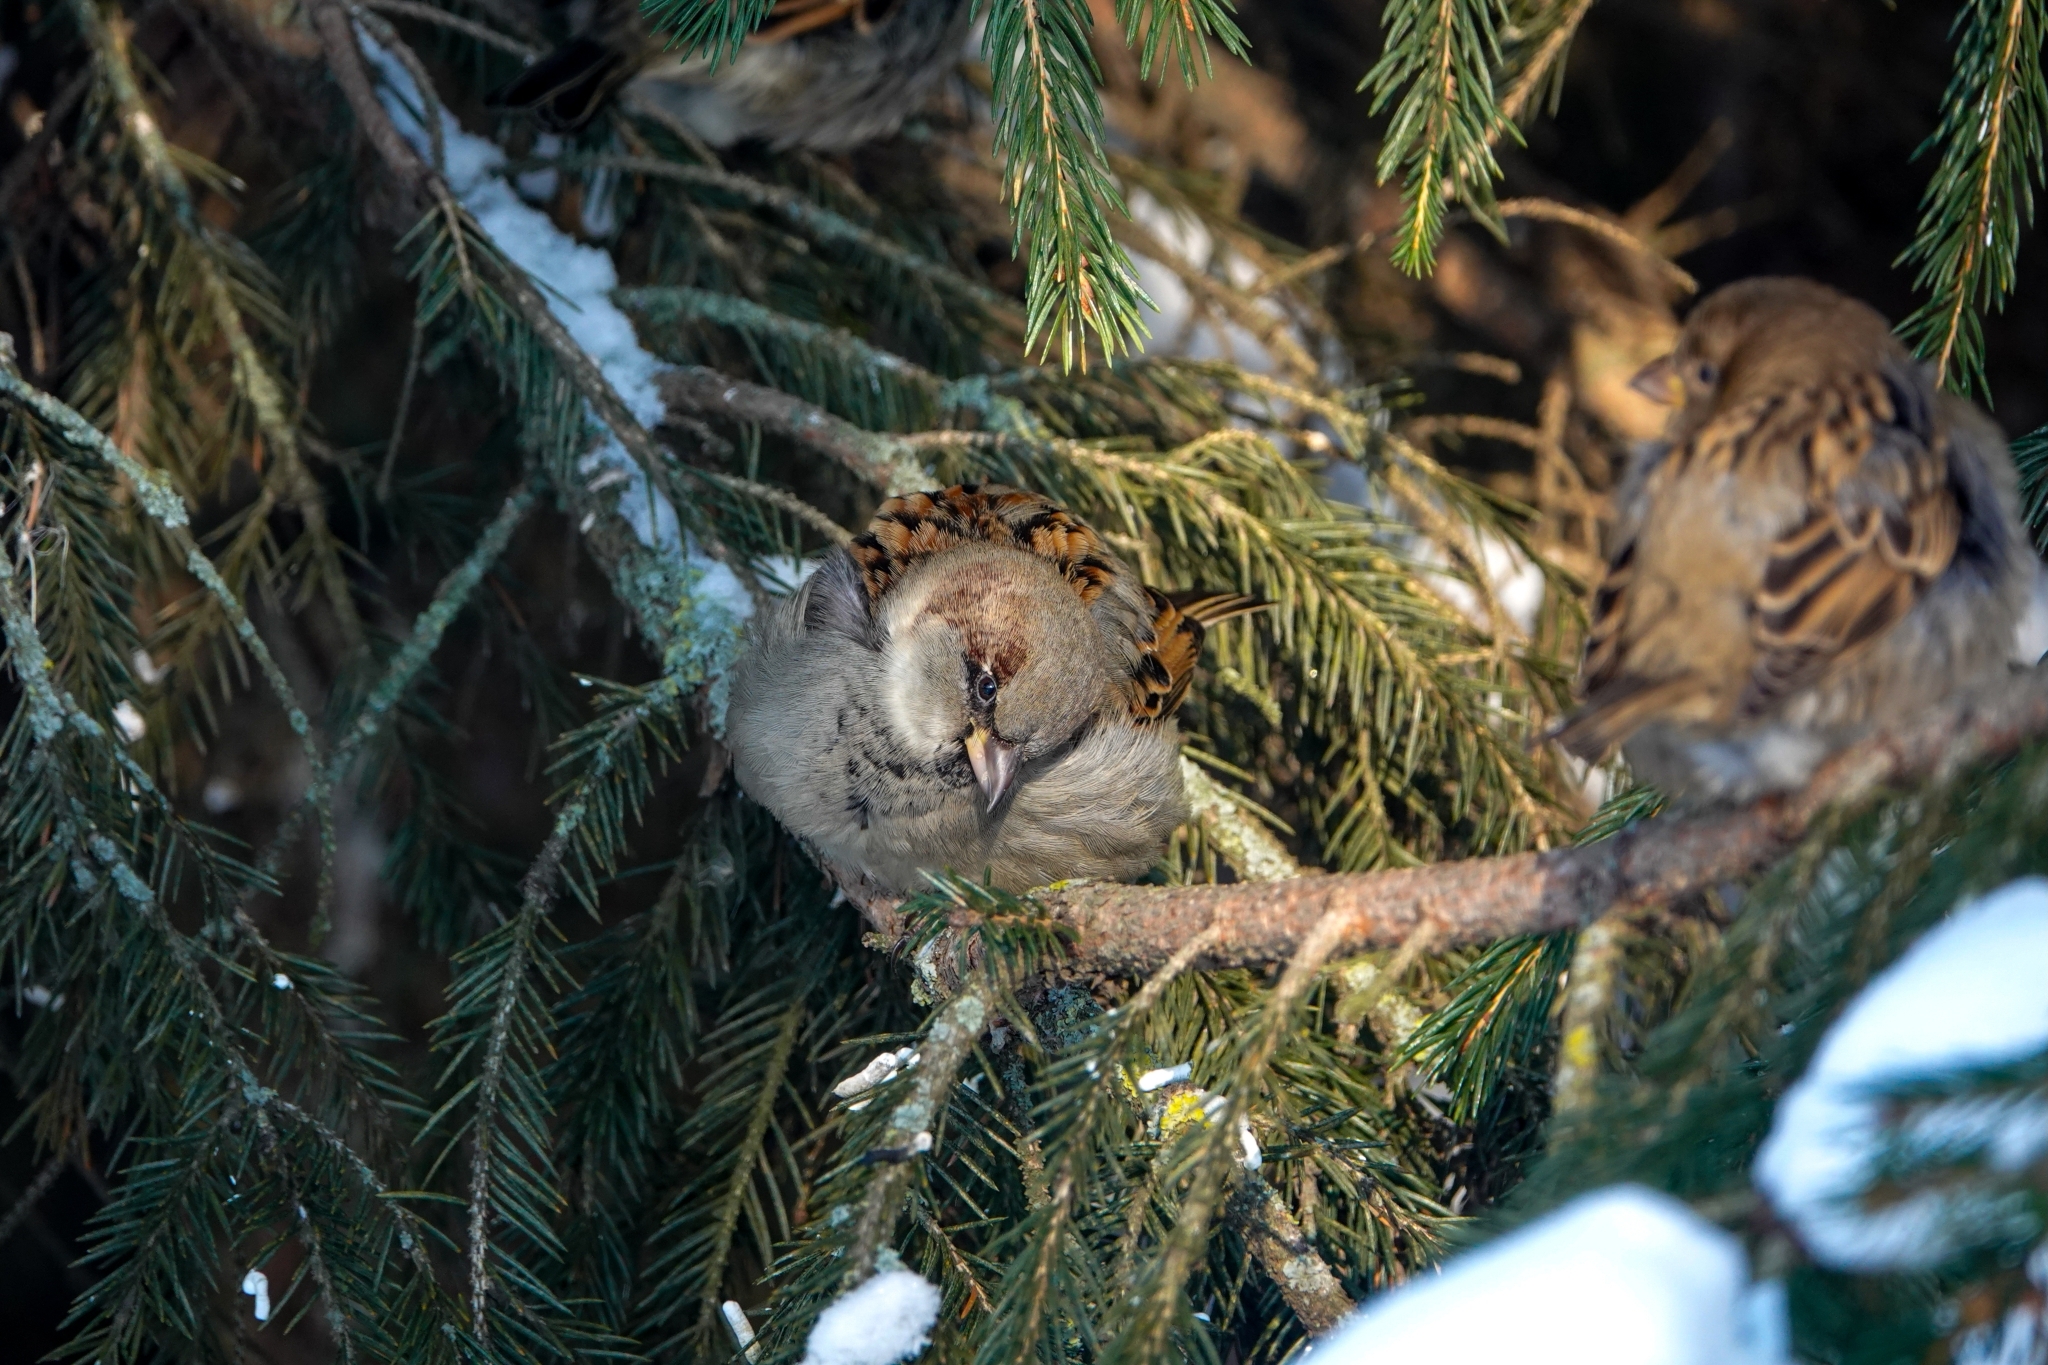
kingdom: Animalia
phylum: Chordata
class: Aves
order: Passeriformes
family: Passeridae
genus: Passer
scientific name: Passer domesticus
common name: House sparrow
